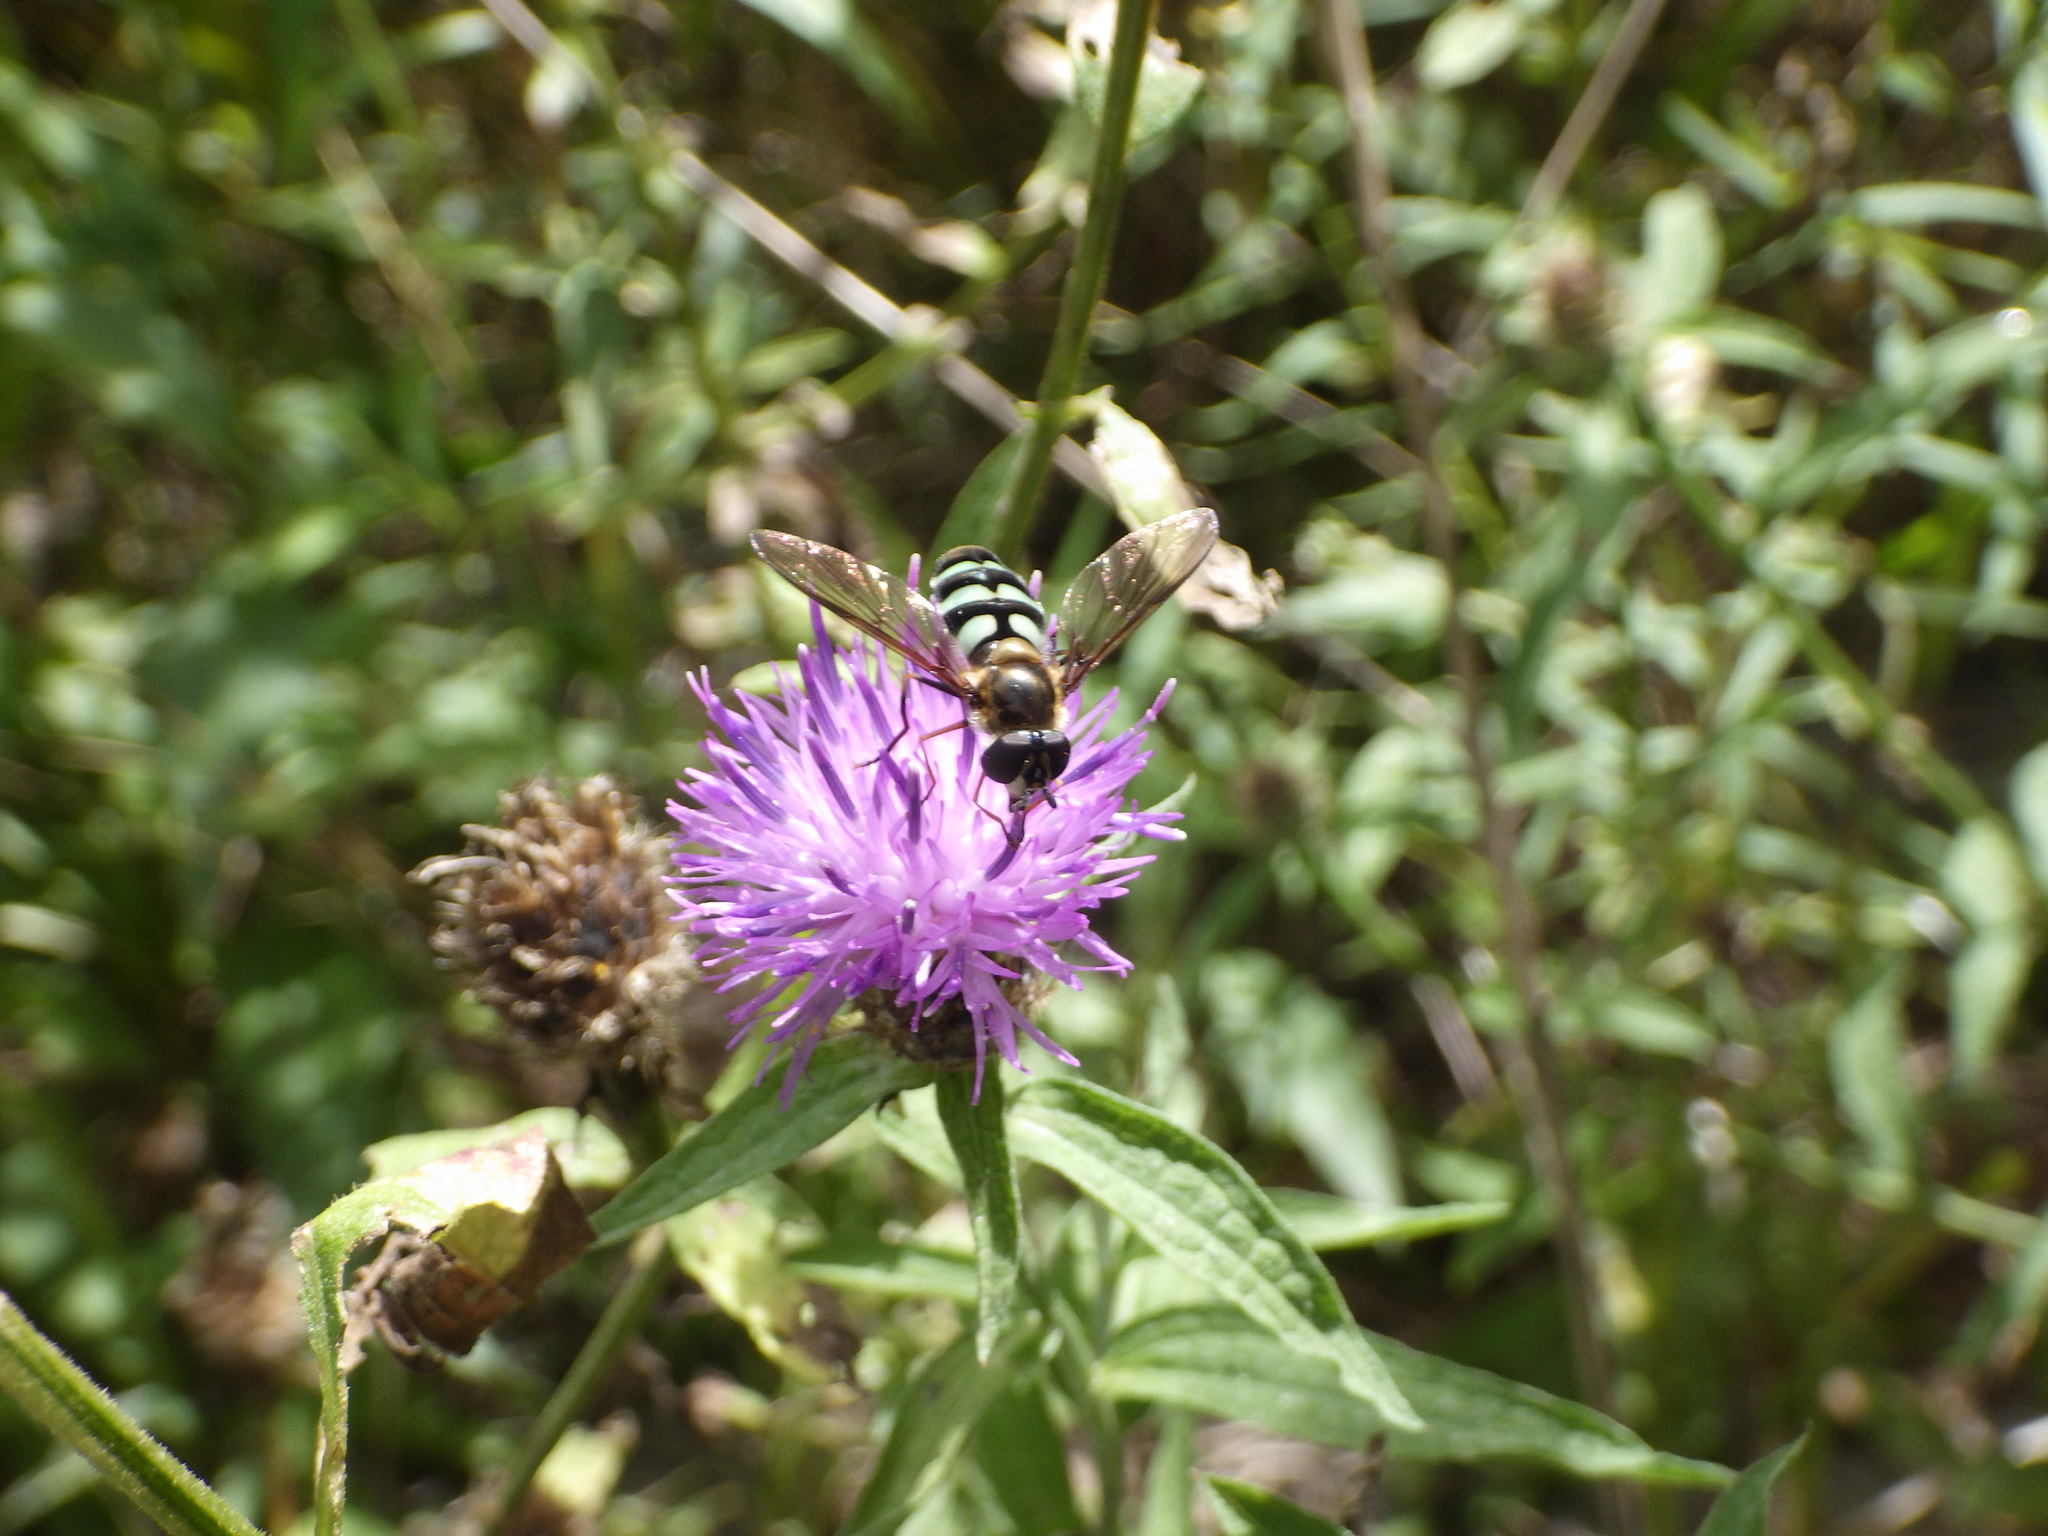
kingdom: Animalia
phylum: Arthropoda
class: Insecta
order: Diptera
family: Syrphidae
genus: Megasyrphus
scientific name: Megasyrphus laxus
